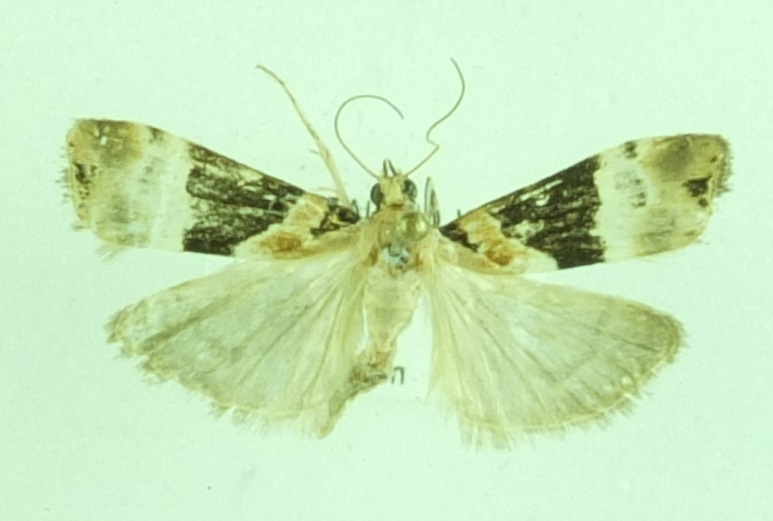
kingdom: Animalia
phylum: Arthropoda
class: Insecta
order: Lepidoptera
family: Crambidae
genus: Eudonia
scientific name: Eudonia aspidota
